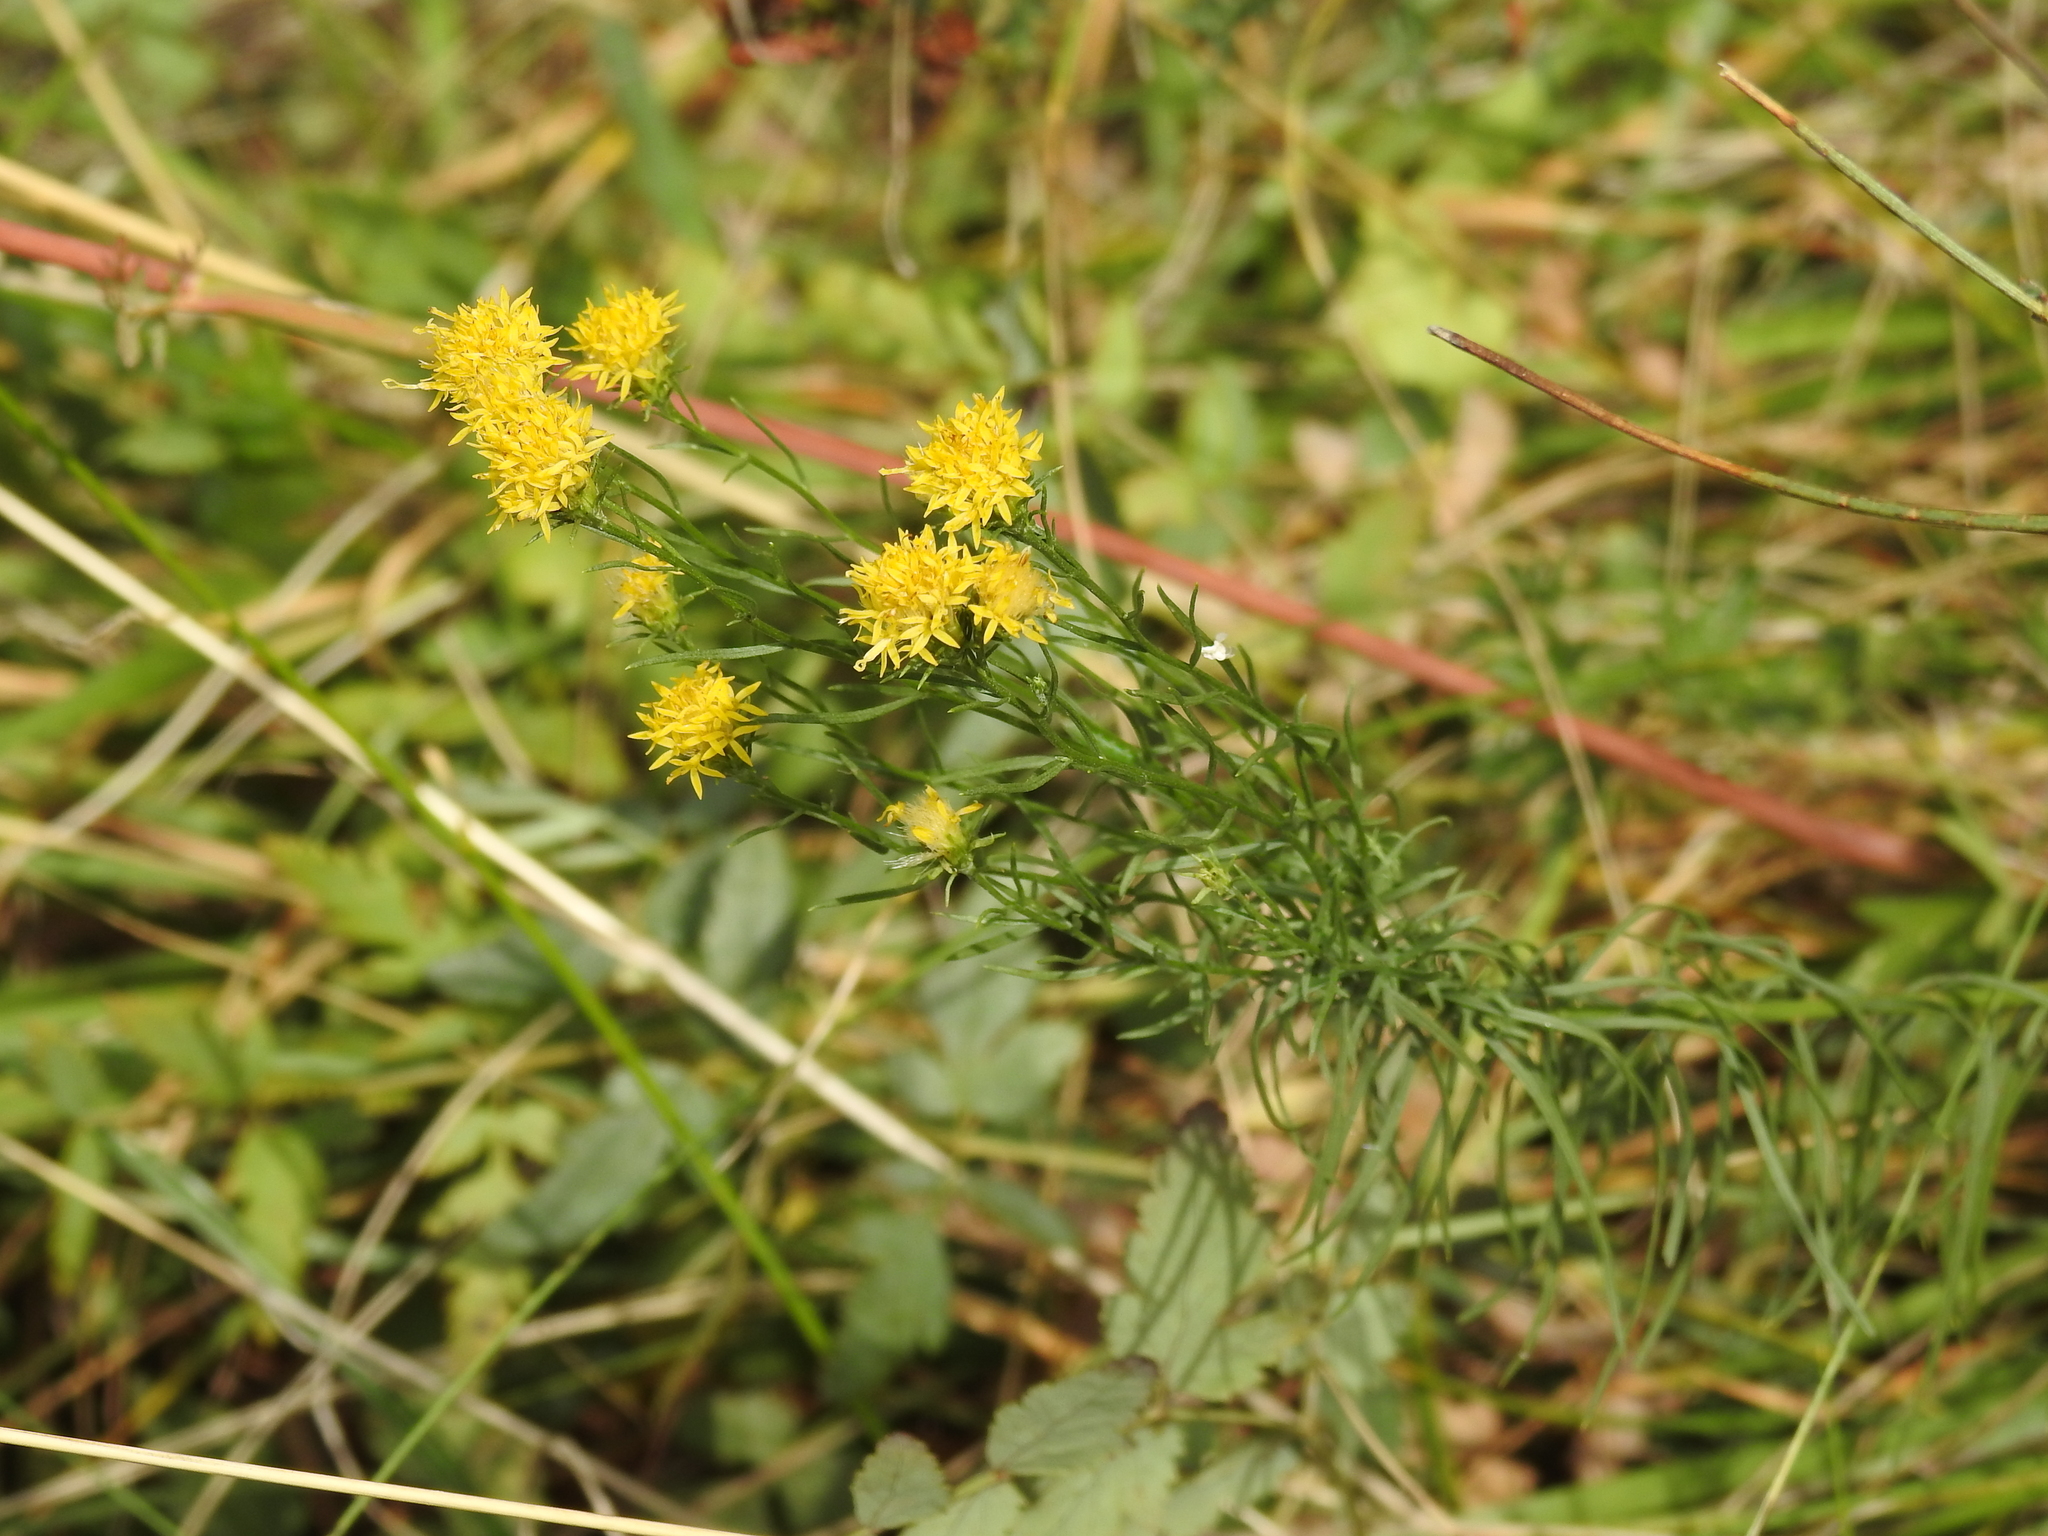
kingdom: Plantae
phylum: Tracheophyta
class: Magnoliopsida
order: Asterales
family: Asteraceae
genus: Galatella
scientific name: Galatella linosyris
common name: Goldilocks aster
